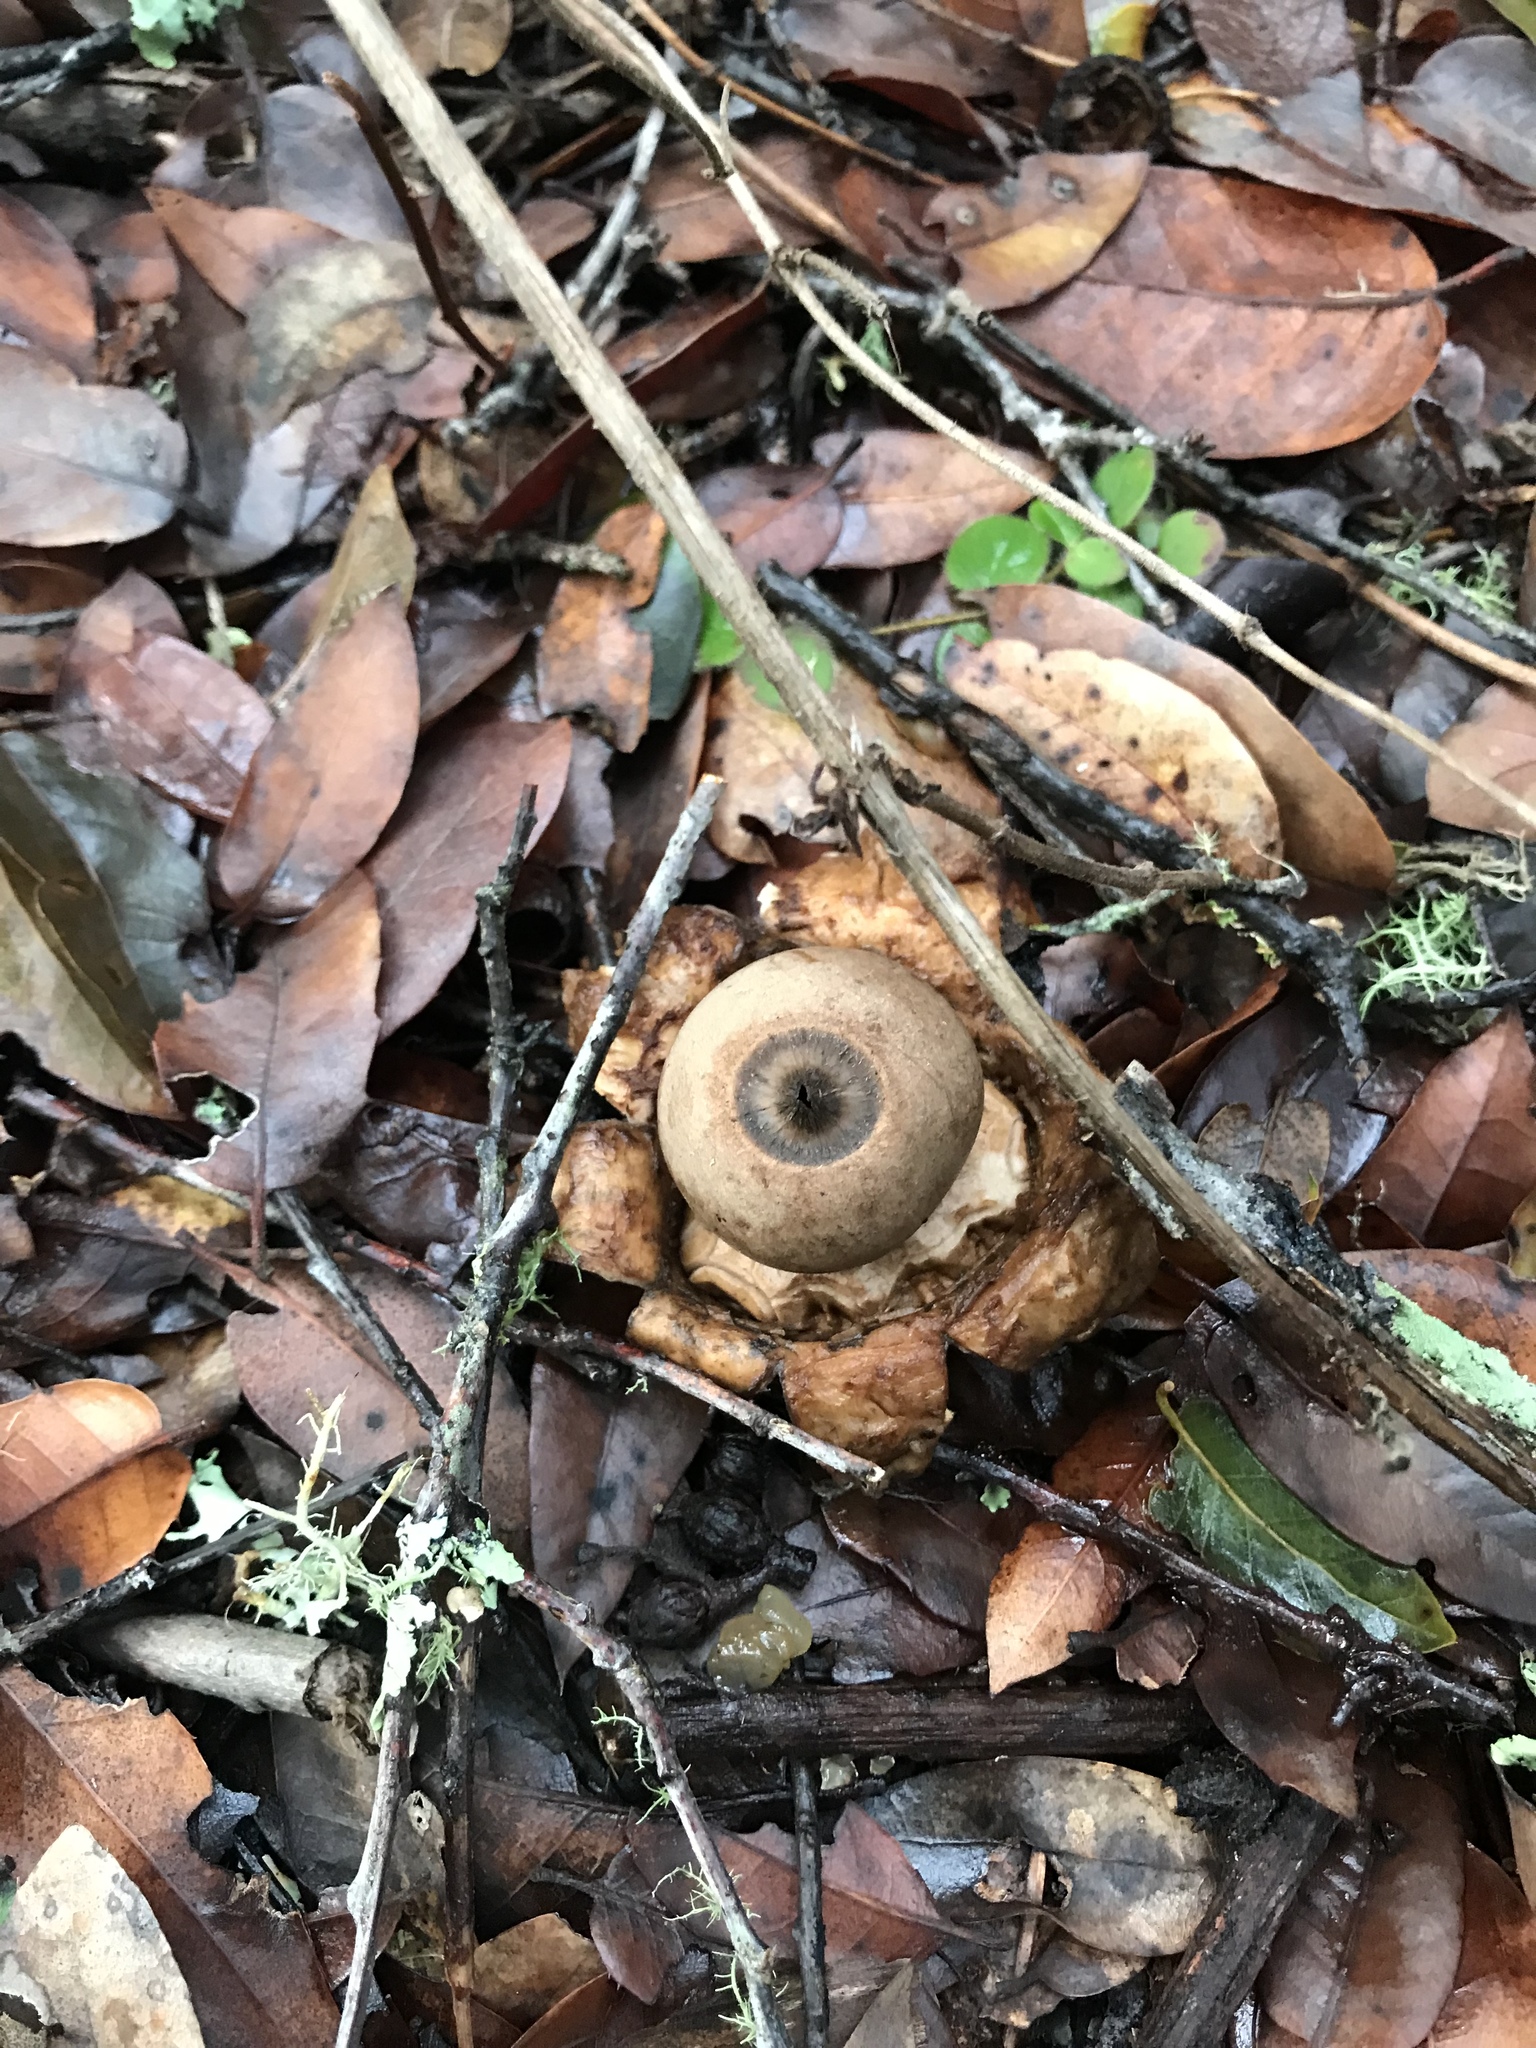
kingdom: Fungi
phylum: Basidiomycota
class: Agaricomycetes
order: Geastrales
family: Geastraceae
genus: Geastrum
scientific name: Geastrum saccatum
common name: Rounded earthstar
